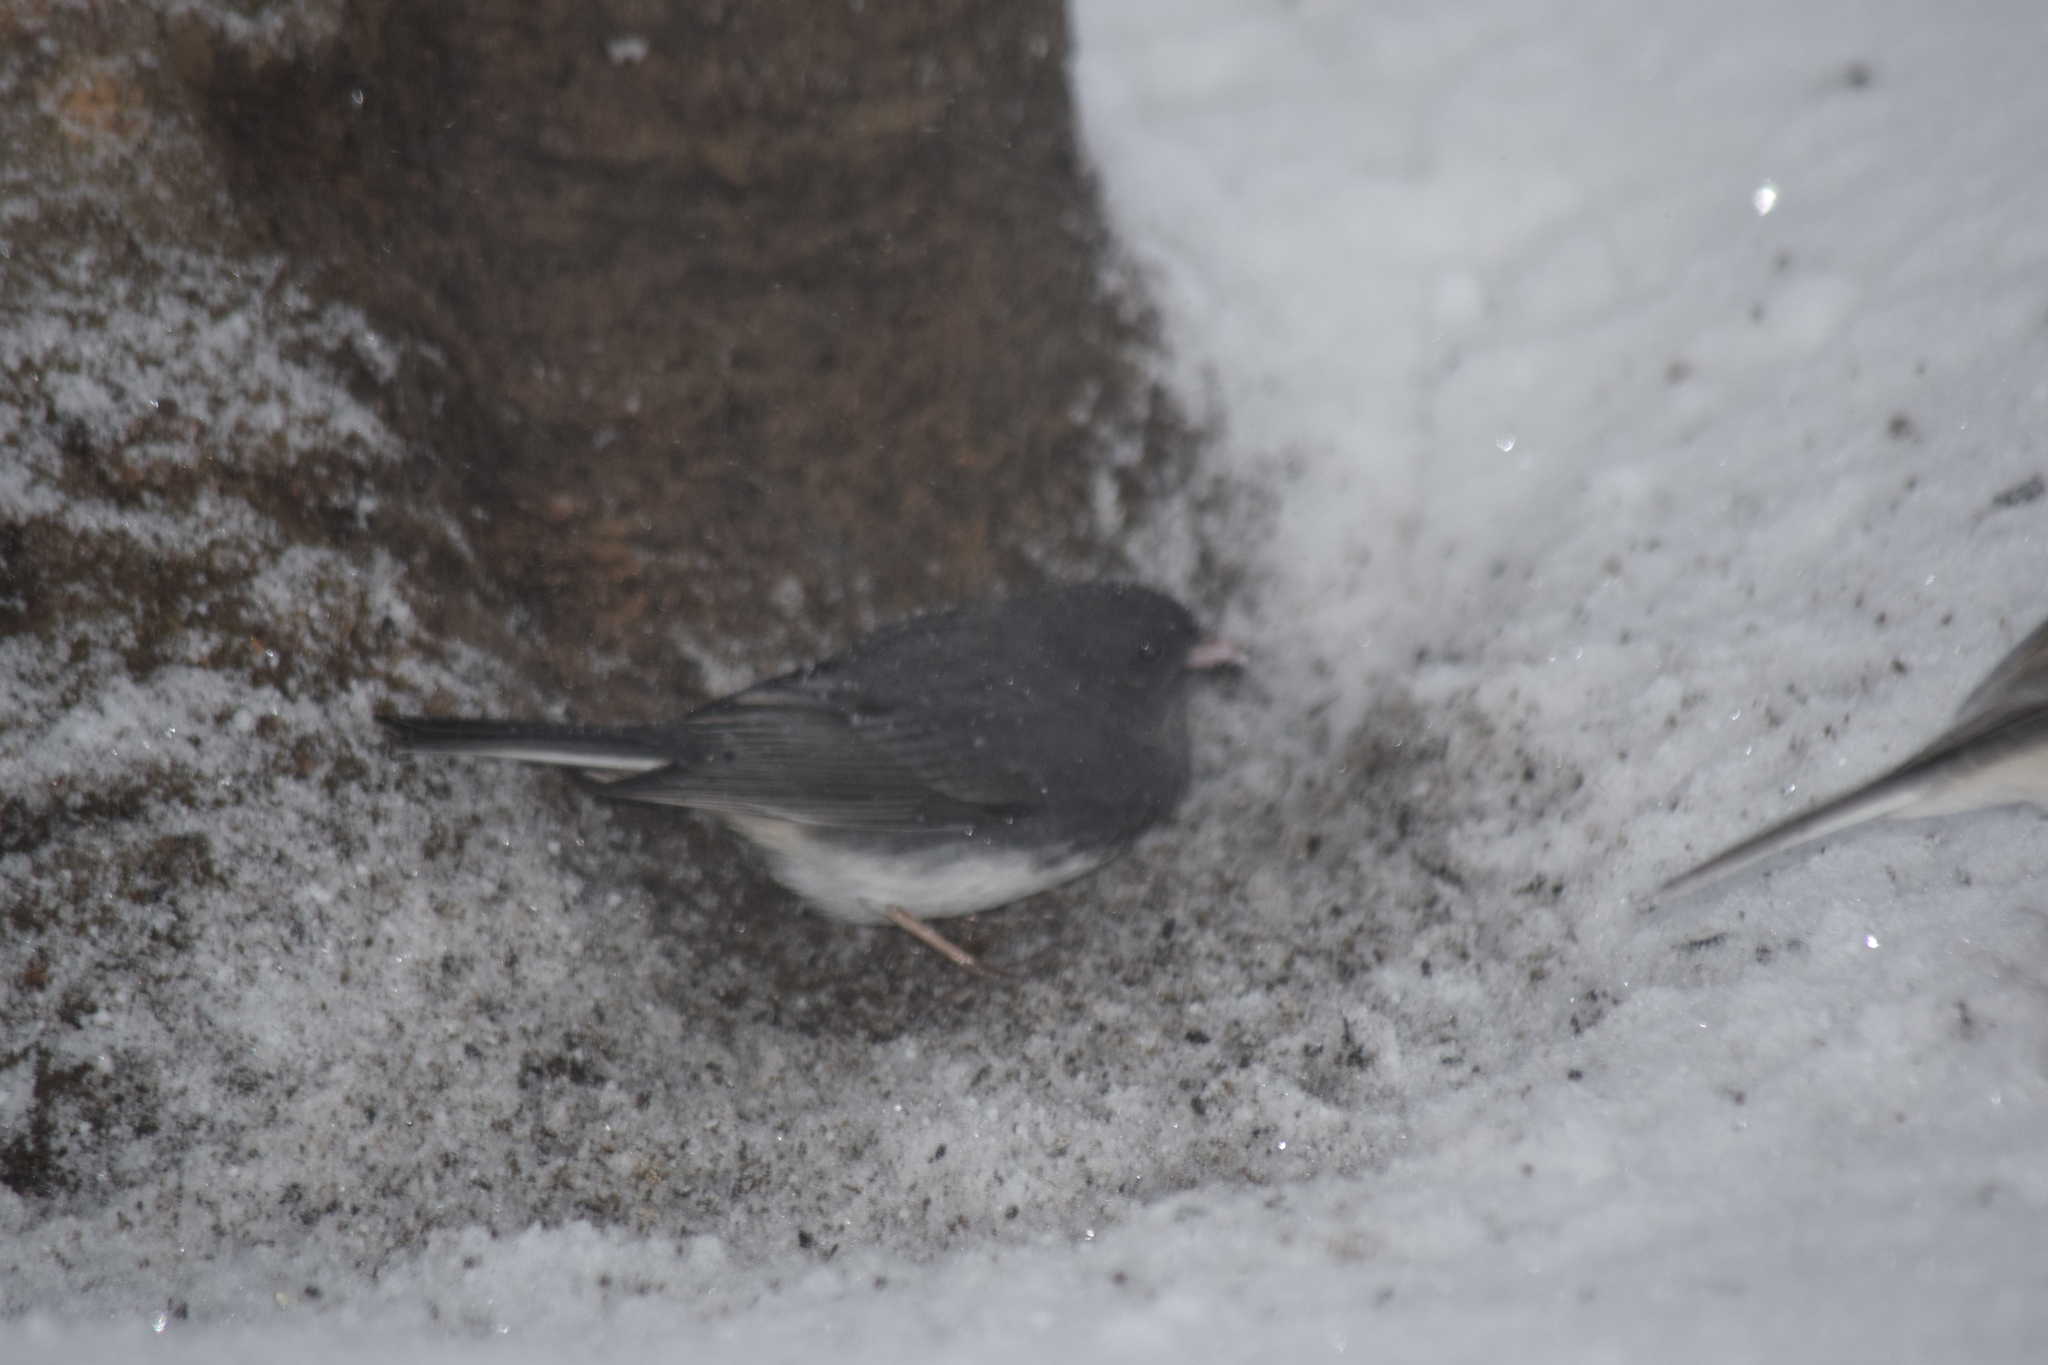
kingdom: Animalia
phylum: Chordata
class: Aves
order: Passeriformes
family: Passerellidae
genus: Junco
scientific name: Junco hyemalis
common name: Dark-eyed junco
